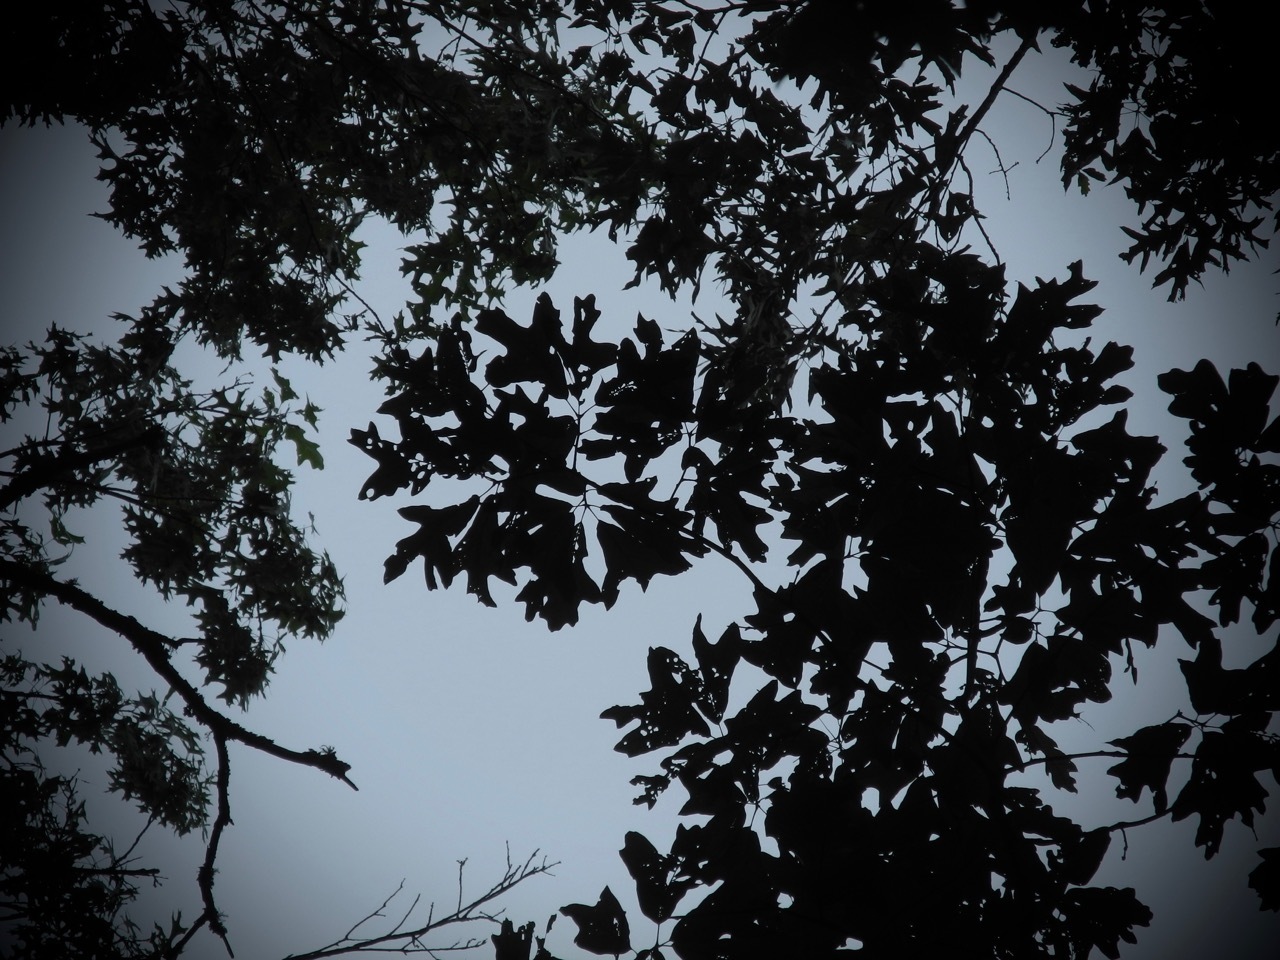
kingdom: Plantae
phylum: Tracheophyta
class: Magnoliopsida
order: Fagales
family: Fagaceae
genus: Quercus
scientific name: Quercus falcata
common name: Southern red oak
